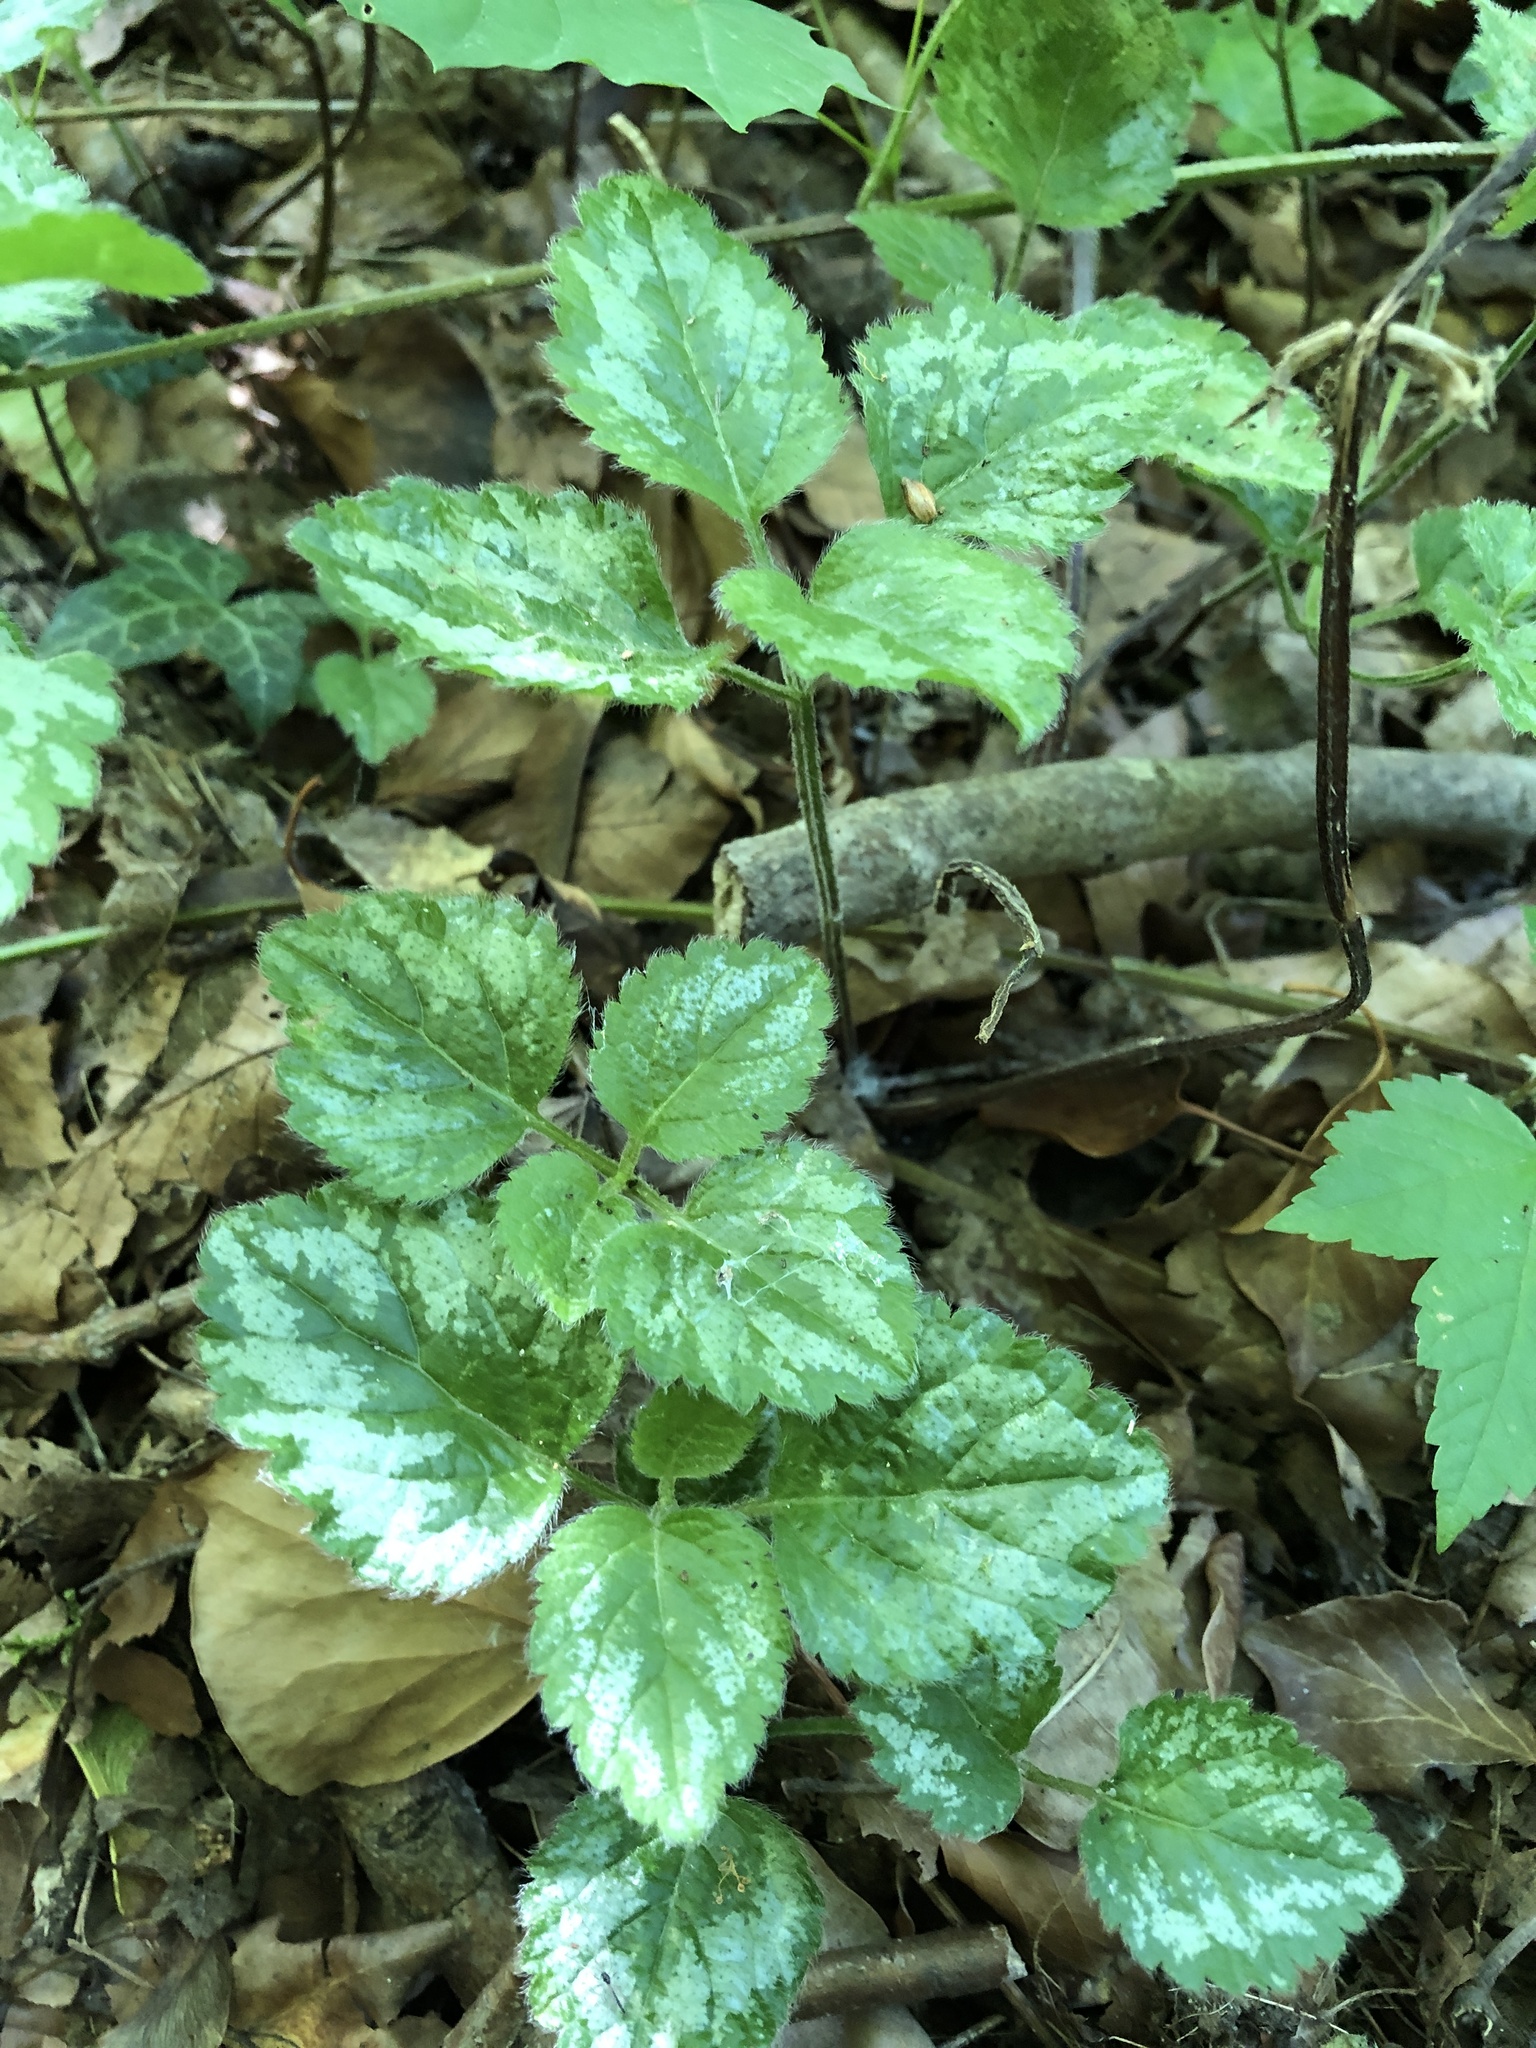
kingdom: Plantae
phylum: Tracheophyta
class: Magnoliopsida
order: Lamiales
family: Lamiaceae
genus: Lamium
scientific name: Lamium galeobdolon
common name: Yellow archangel
